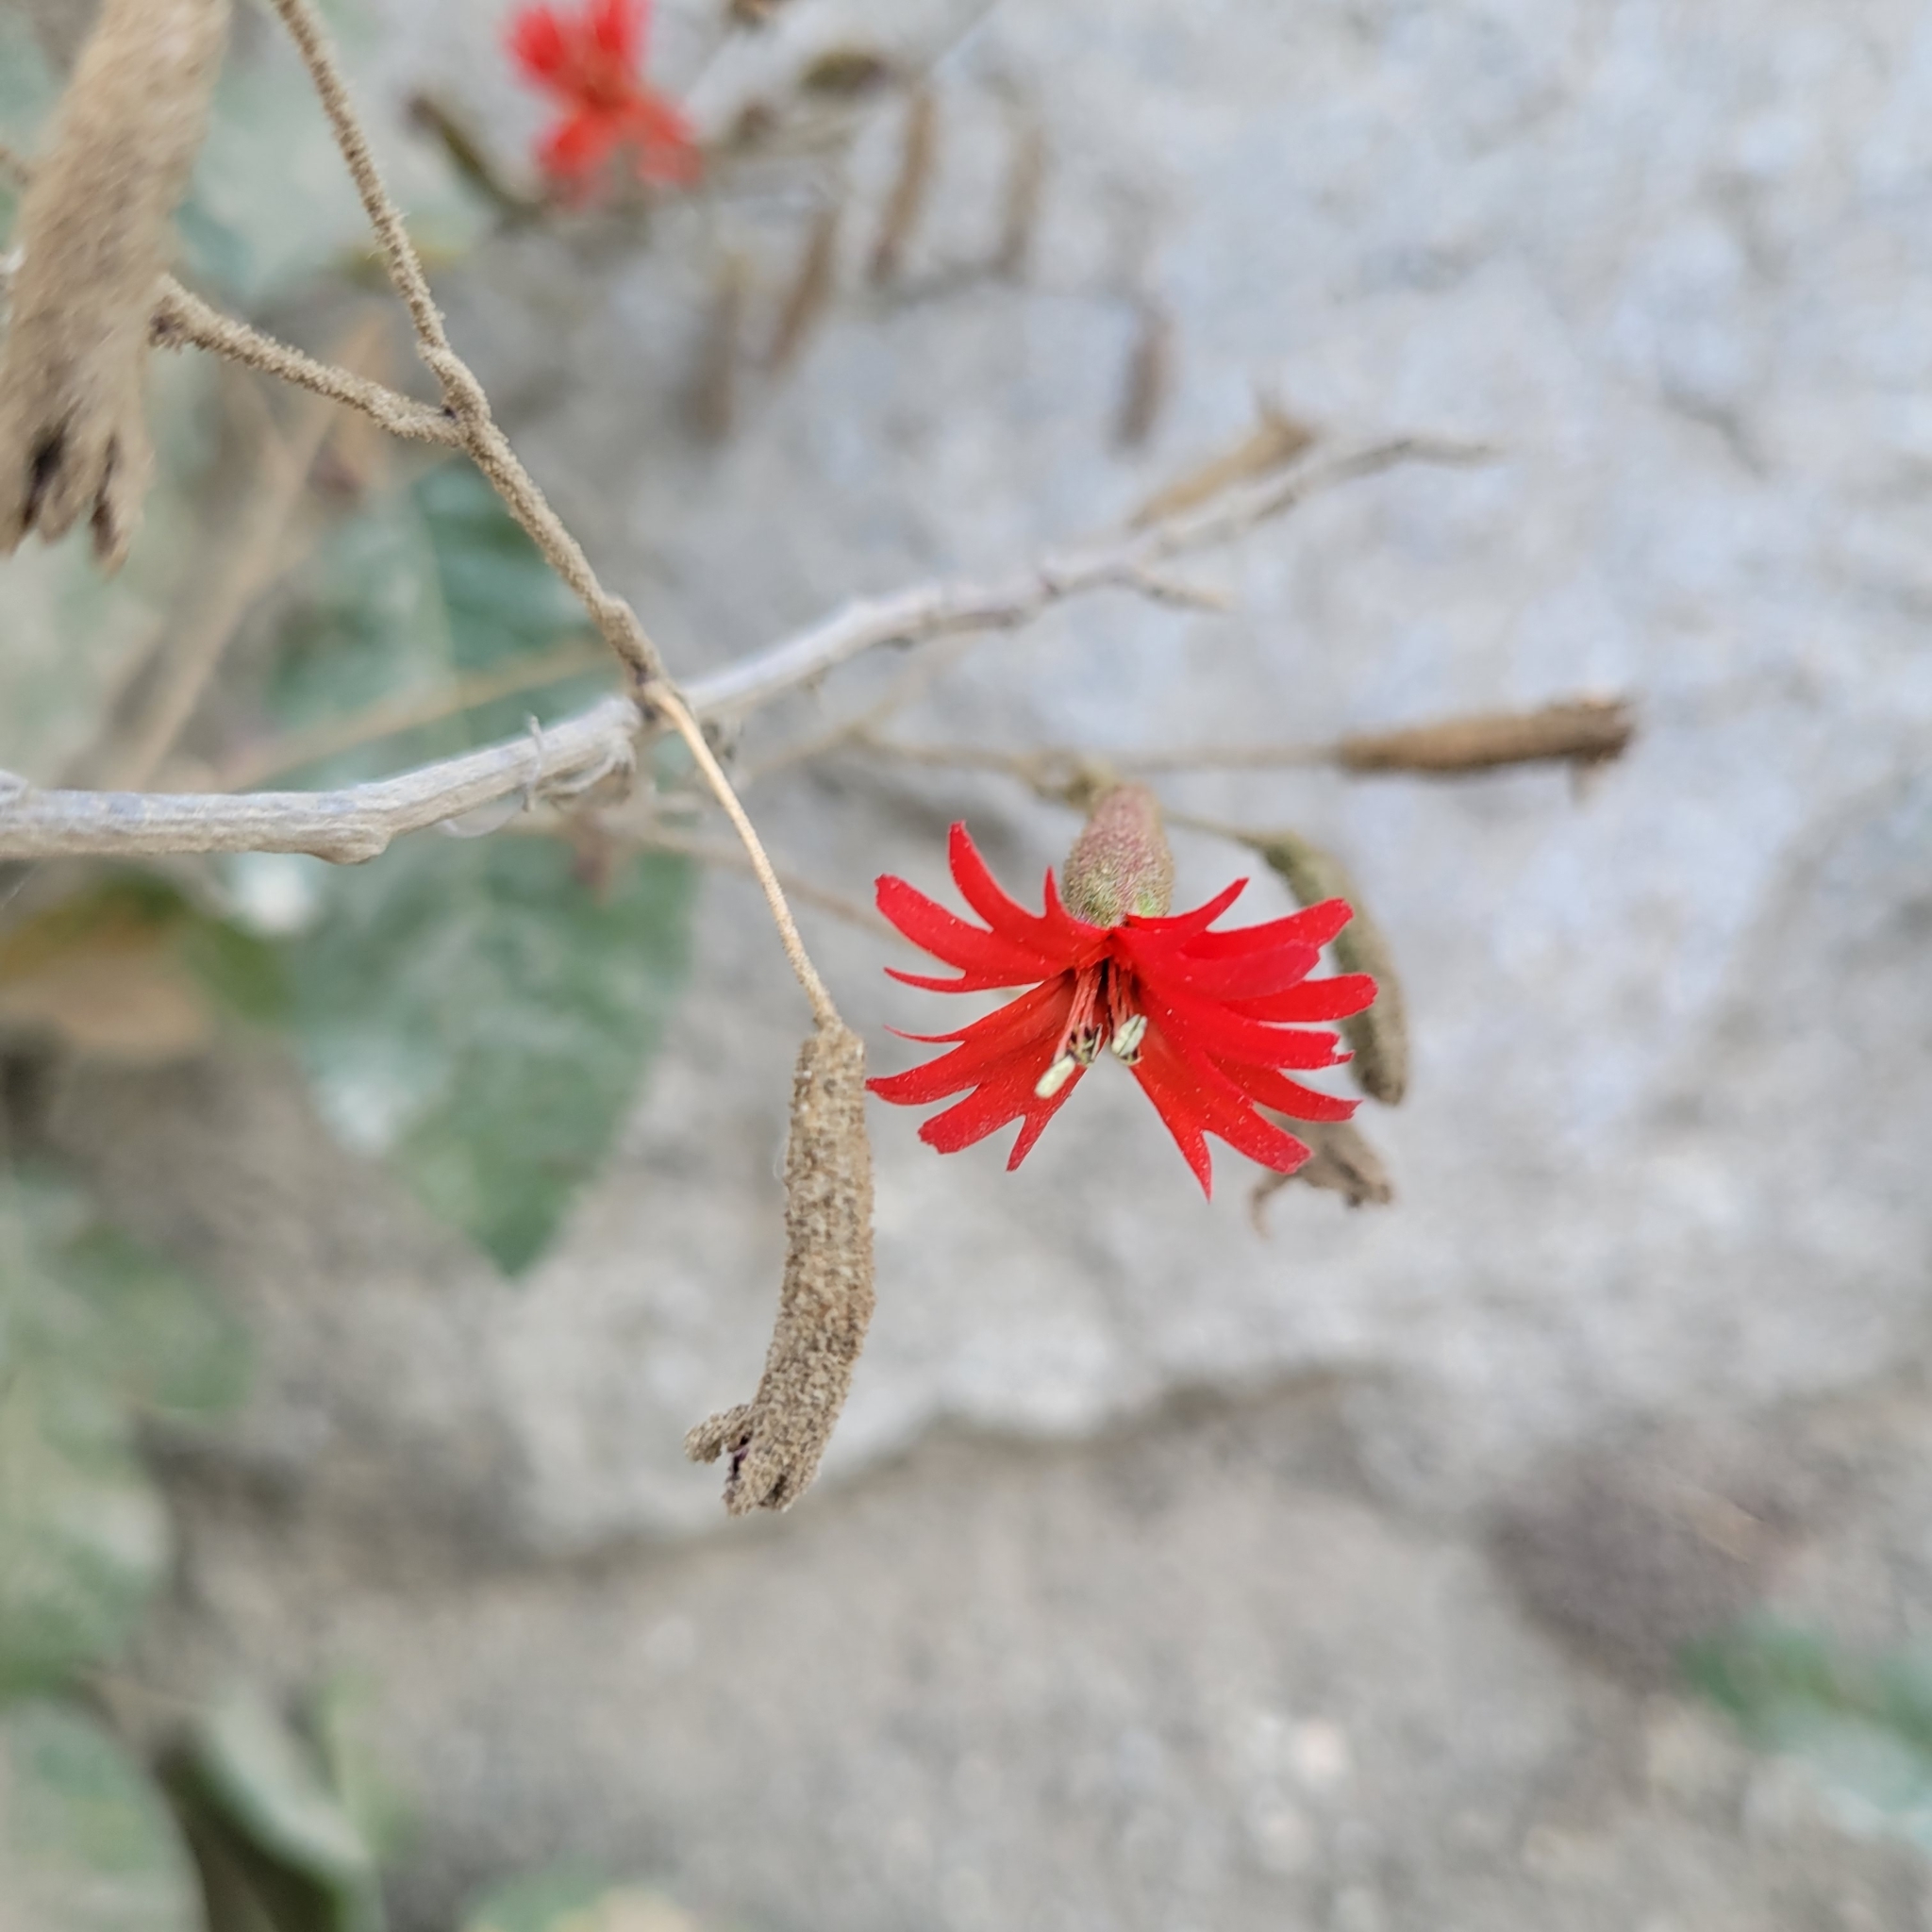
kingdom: Plantae
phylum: Tracheophyta
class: Magnoliopsida
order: Caryophyllales
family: Caryophyllaceae
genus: Silene
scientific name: Silene laciniata
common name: Indian-pink
